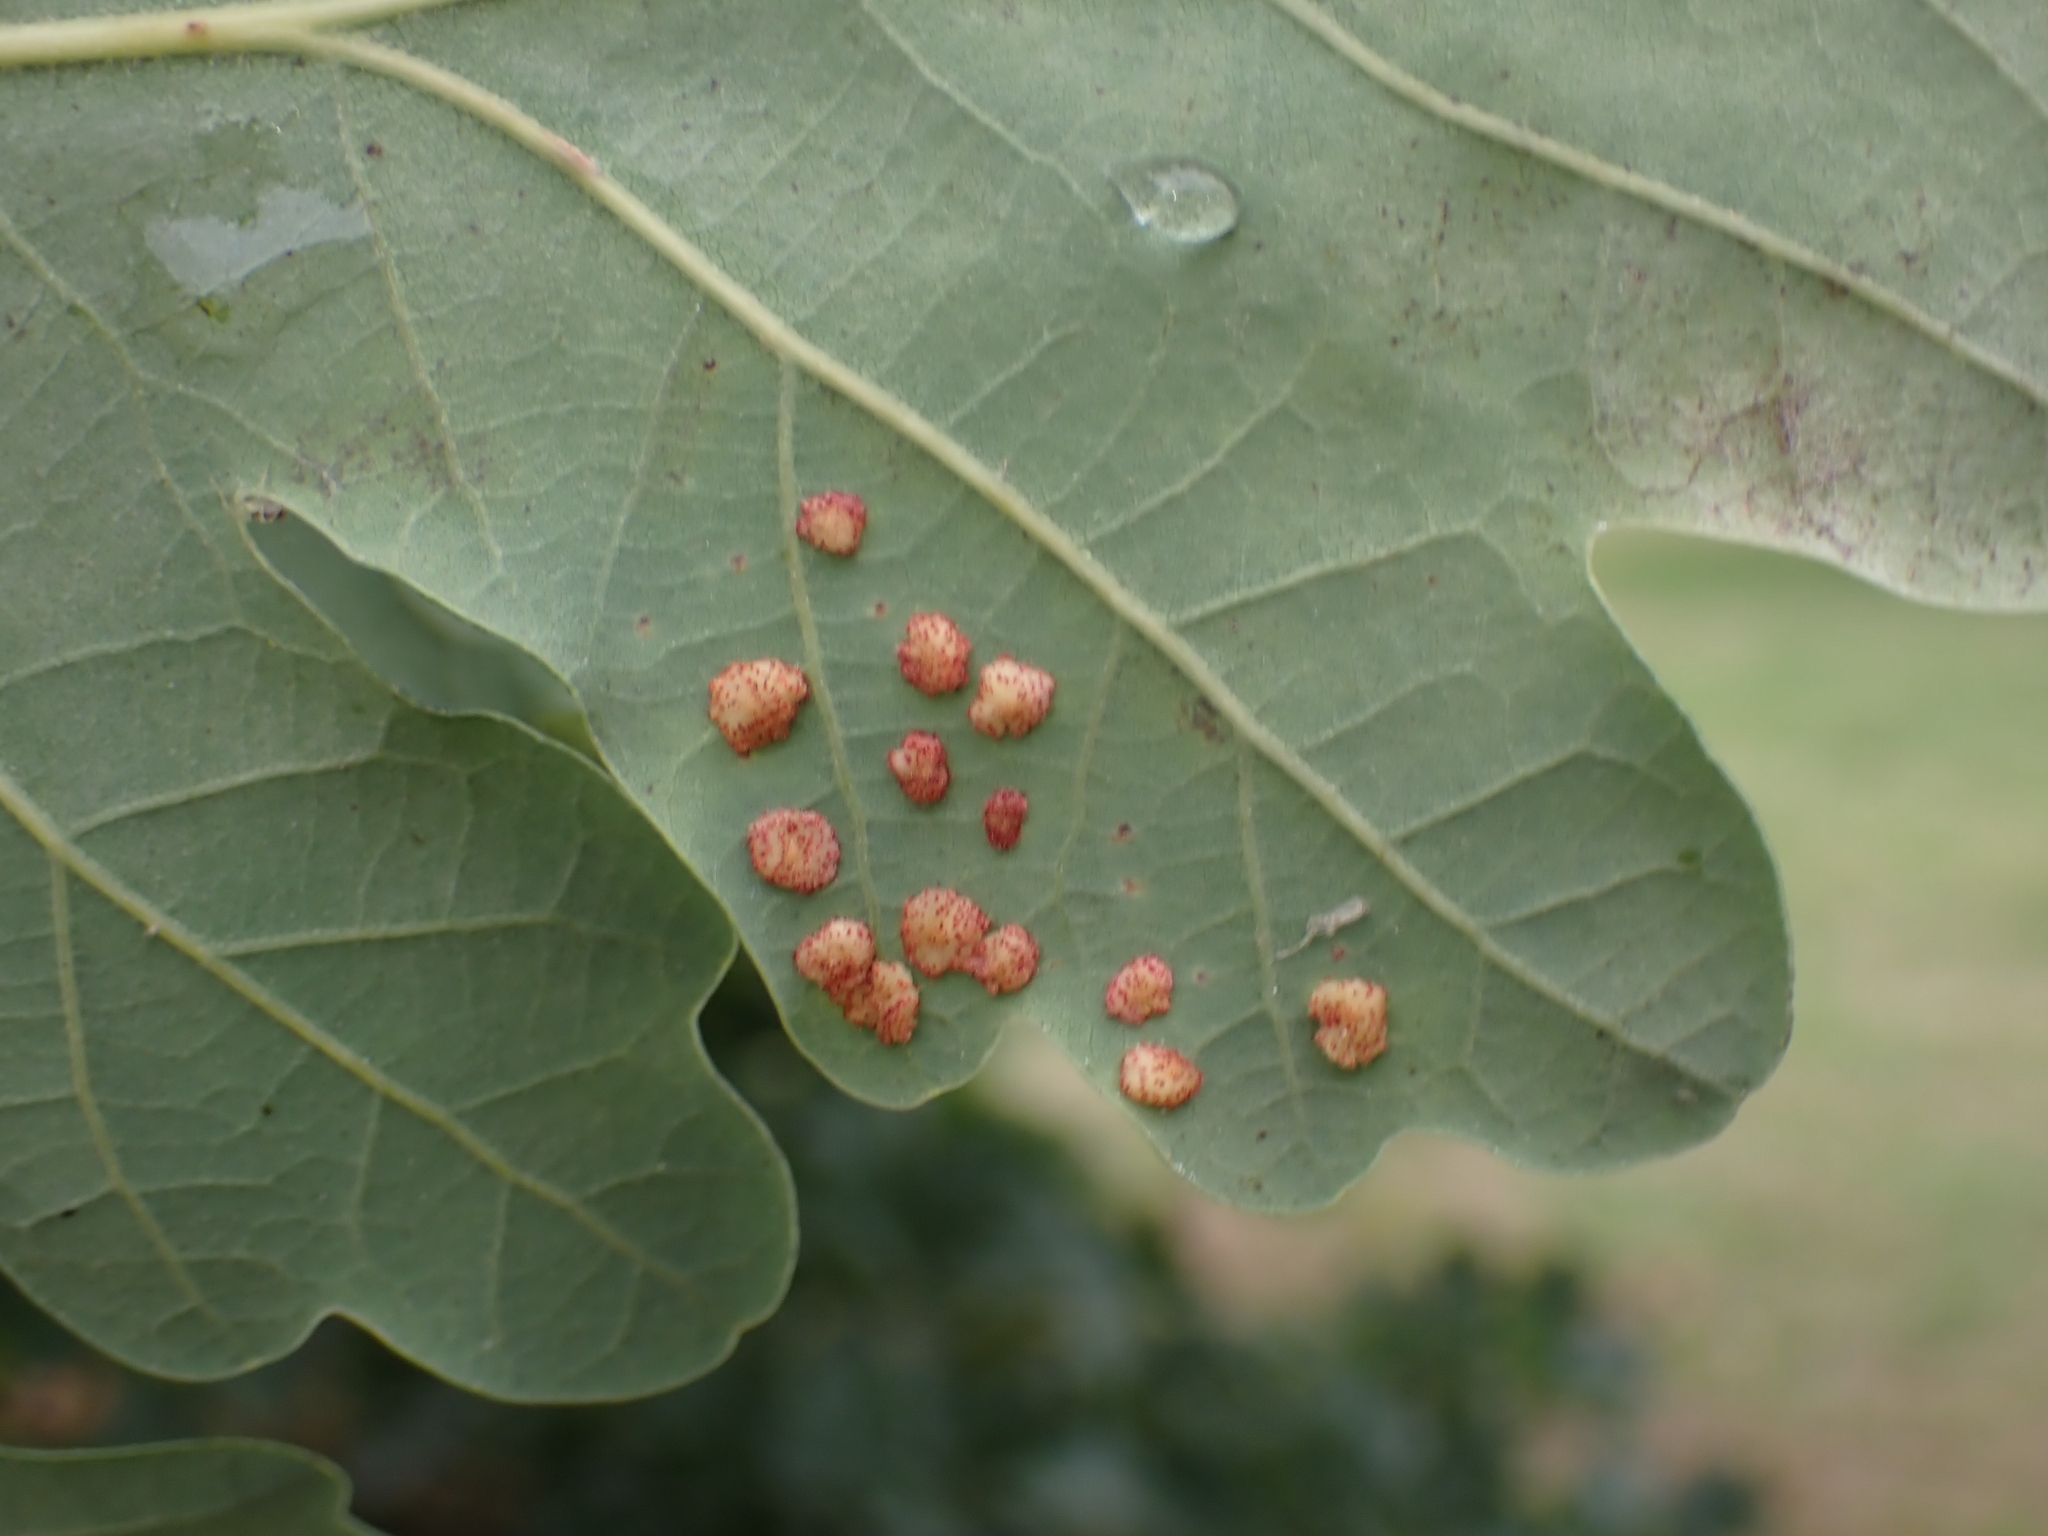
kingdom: Animalia
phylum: Arthropoda
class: Insecta
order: Hymenoptera
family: Cynipidae
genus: Neuroterus
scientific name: Neuroterus quercusbaccarum
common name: Common spangle gall
